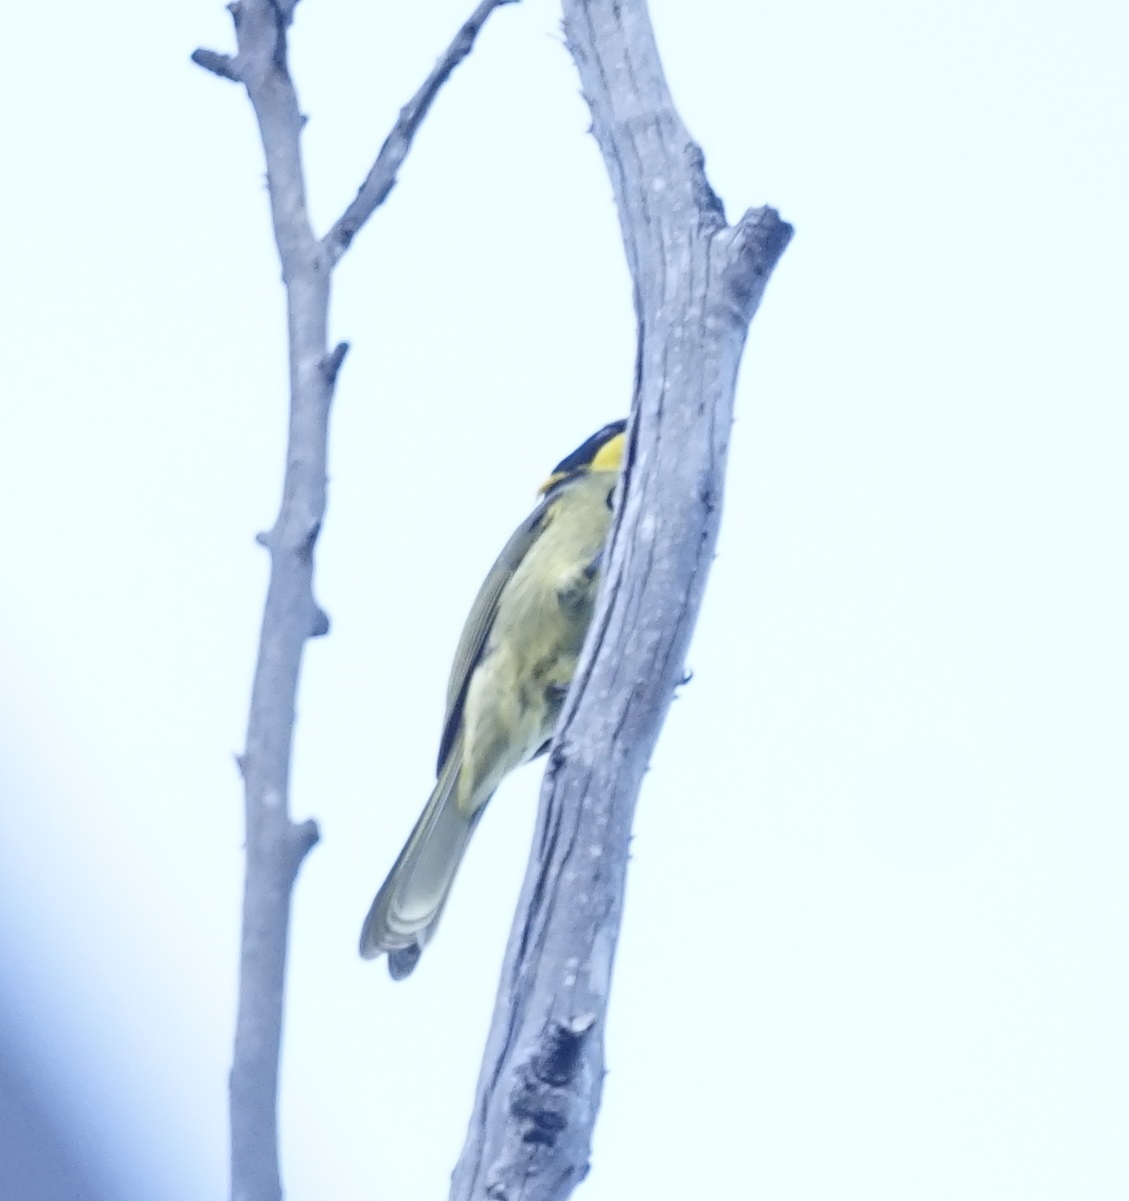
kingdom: Animalia
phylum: Chordata
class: Aves
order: Passeriformes
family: Meliphagidae
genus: Lichenostomus
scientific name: Lichenostomus melanops
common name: Yellow-tufted honeyeater
